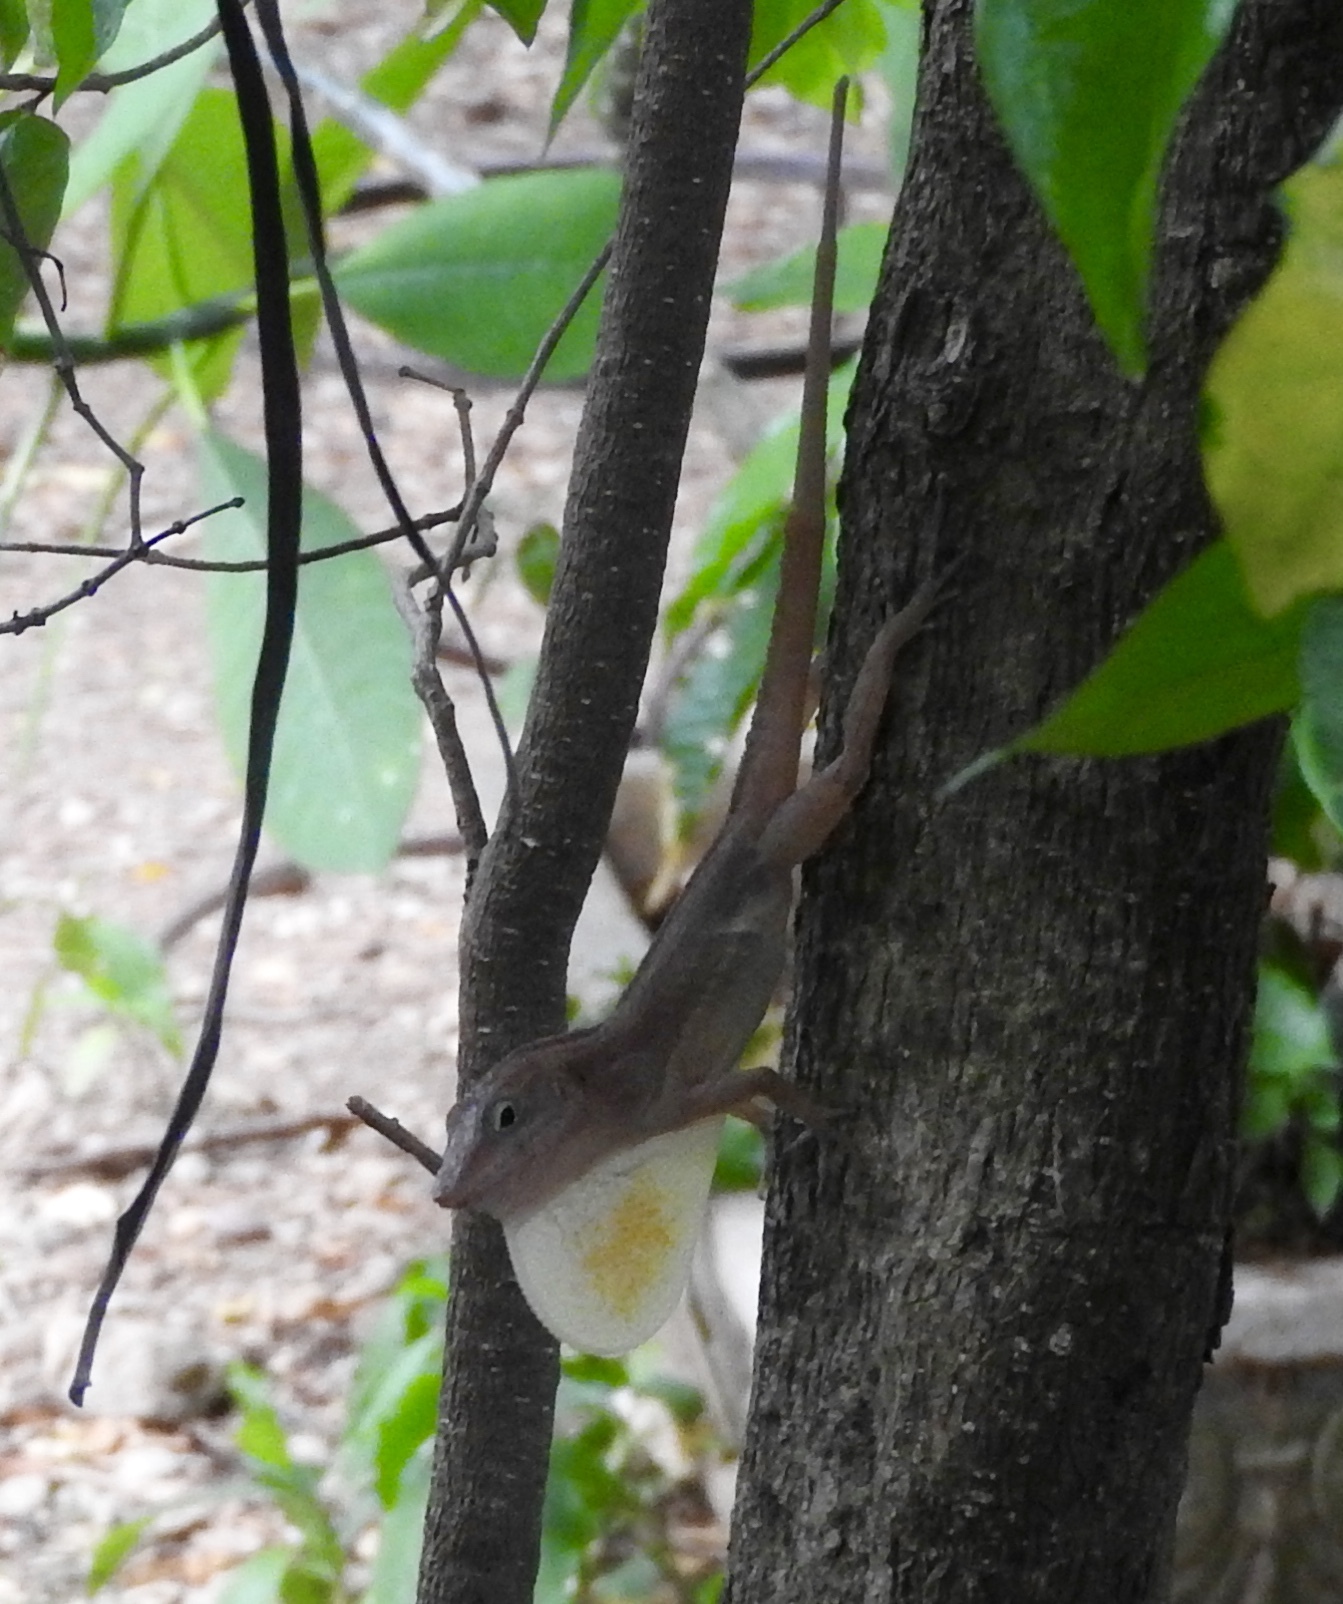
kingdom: Animalia
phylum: Chordata
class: Squamata
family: Dactyloidae
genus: Anolis
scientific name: Anolis lineatopus
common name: Stripefoot anole
